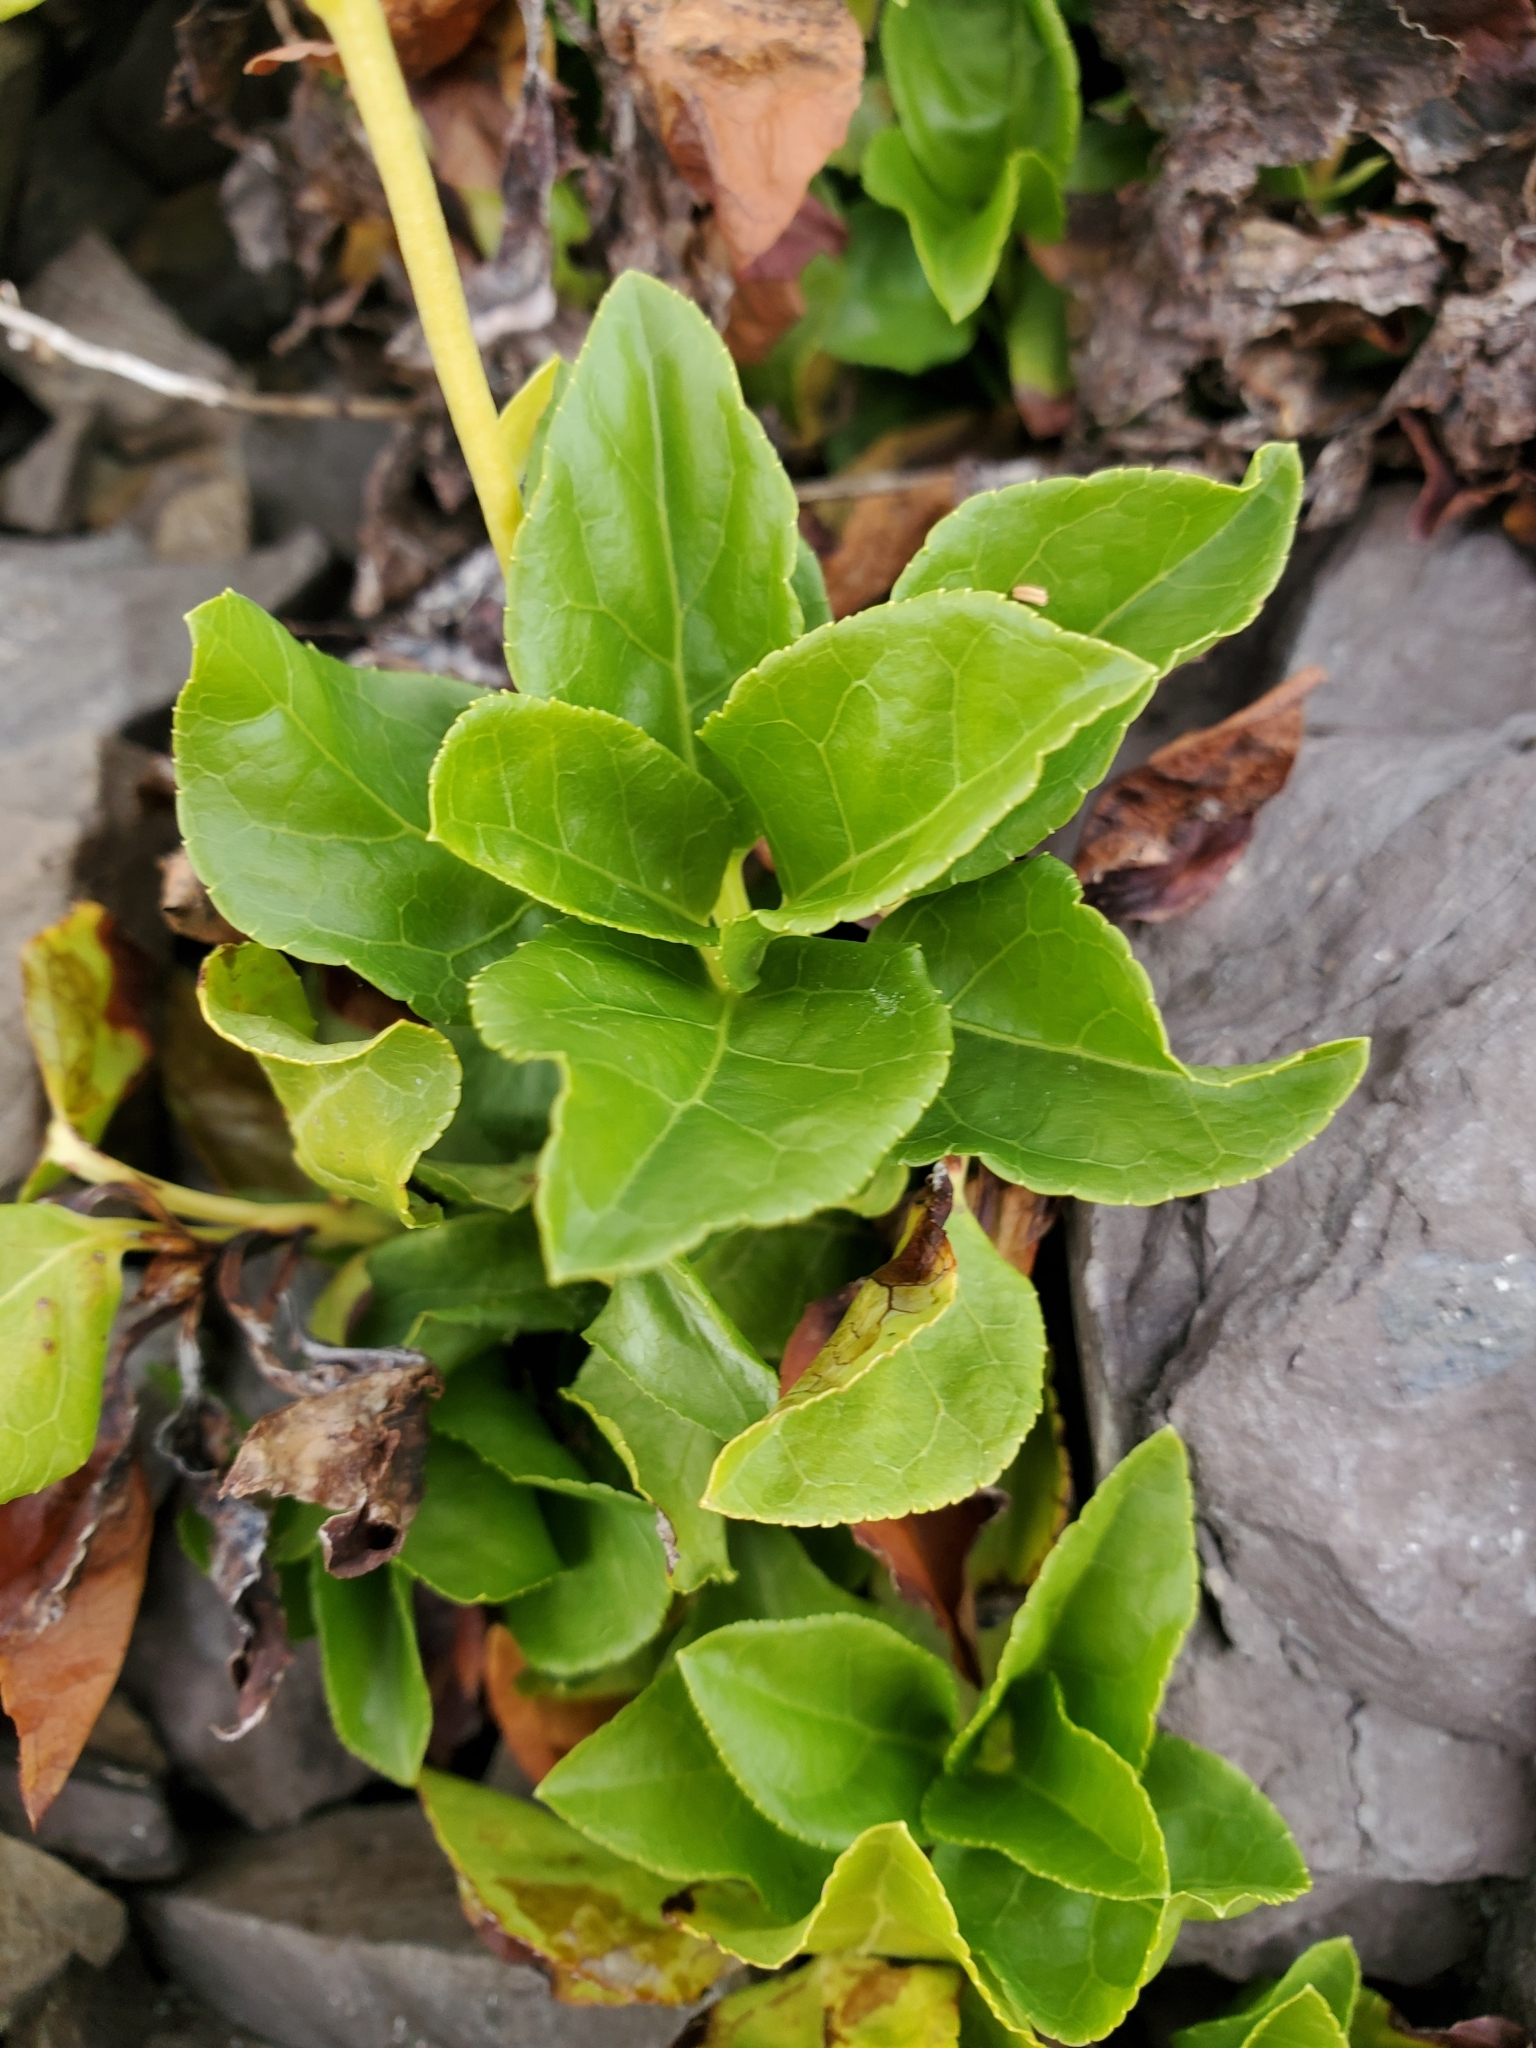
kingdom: Plantae
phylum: Tracheophyta
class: Magnoliopsida
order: Ericales
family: Ericaceae
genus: Orthilia
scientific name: Orthilia secunda
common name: One-sided orthilia
